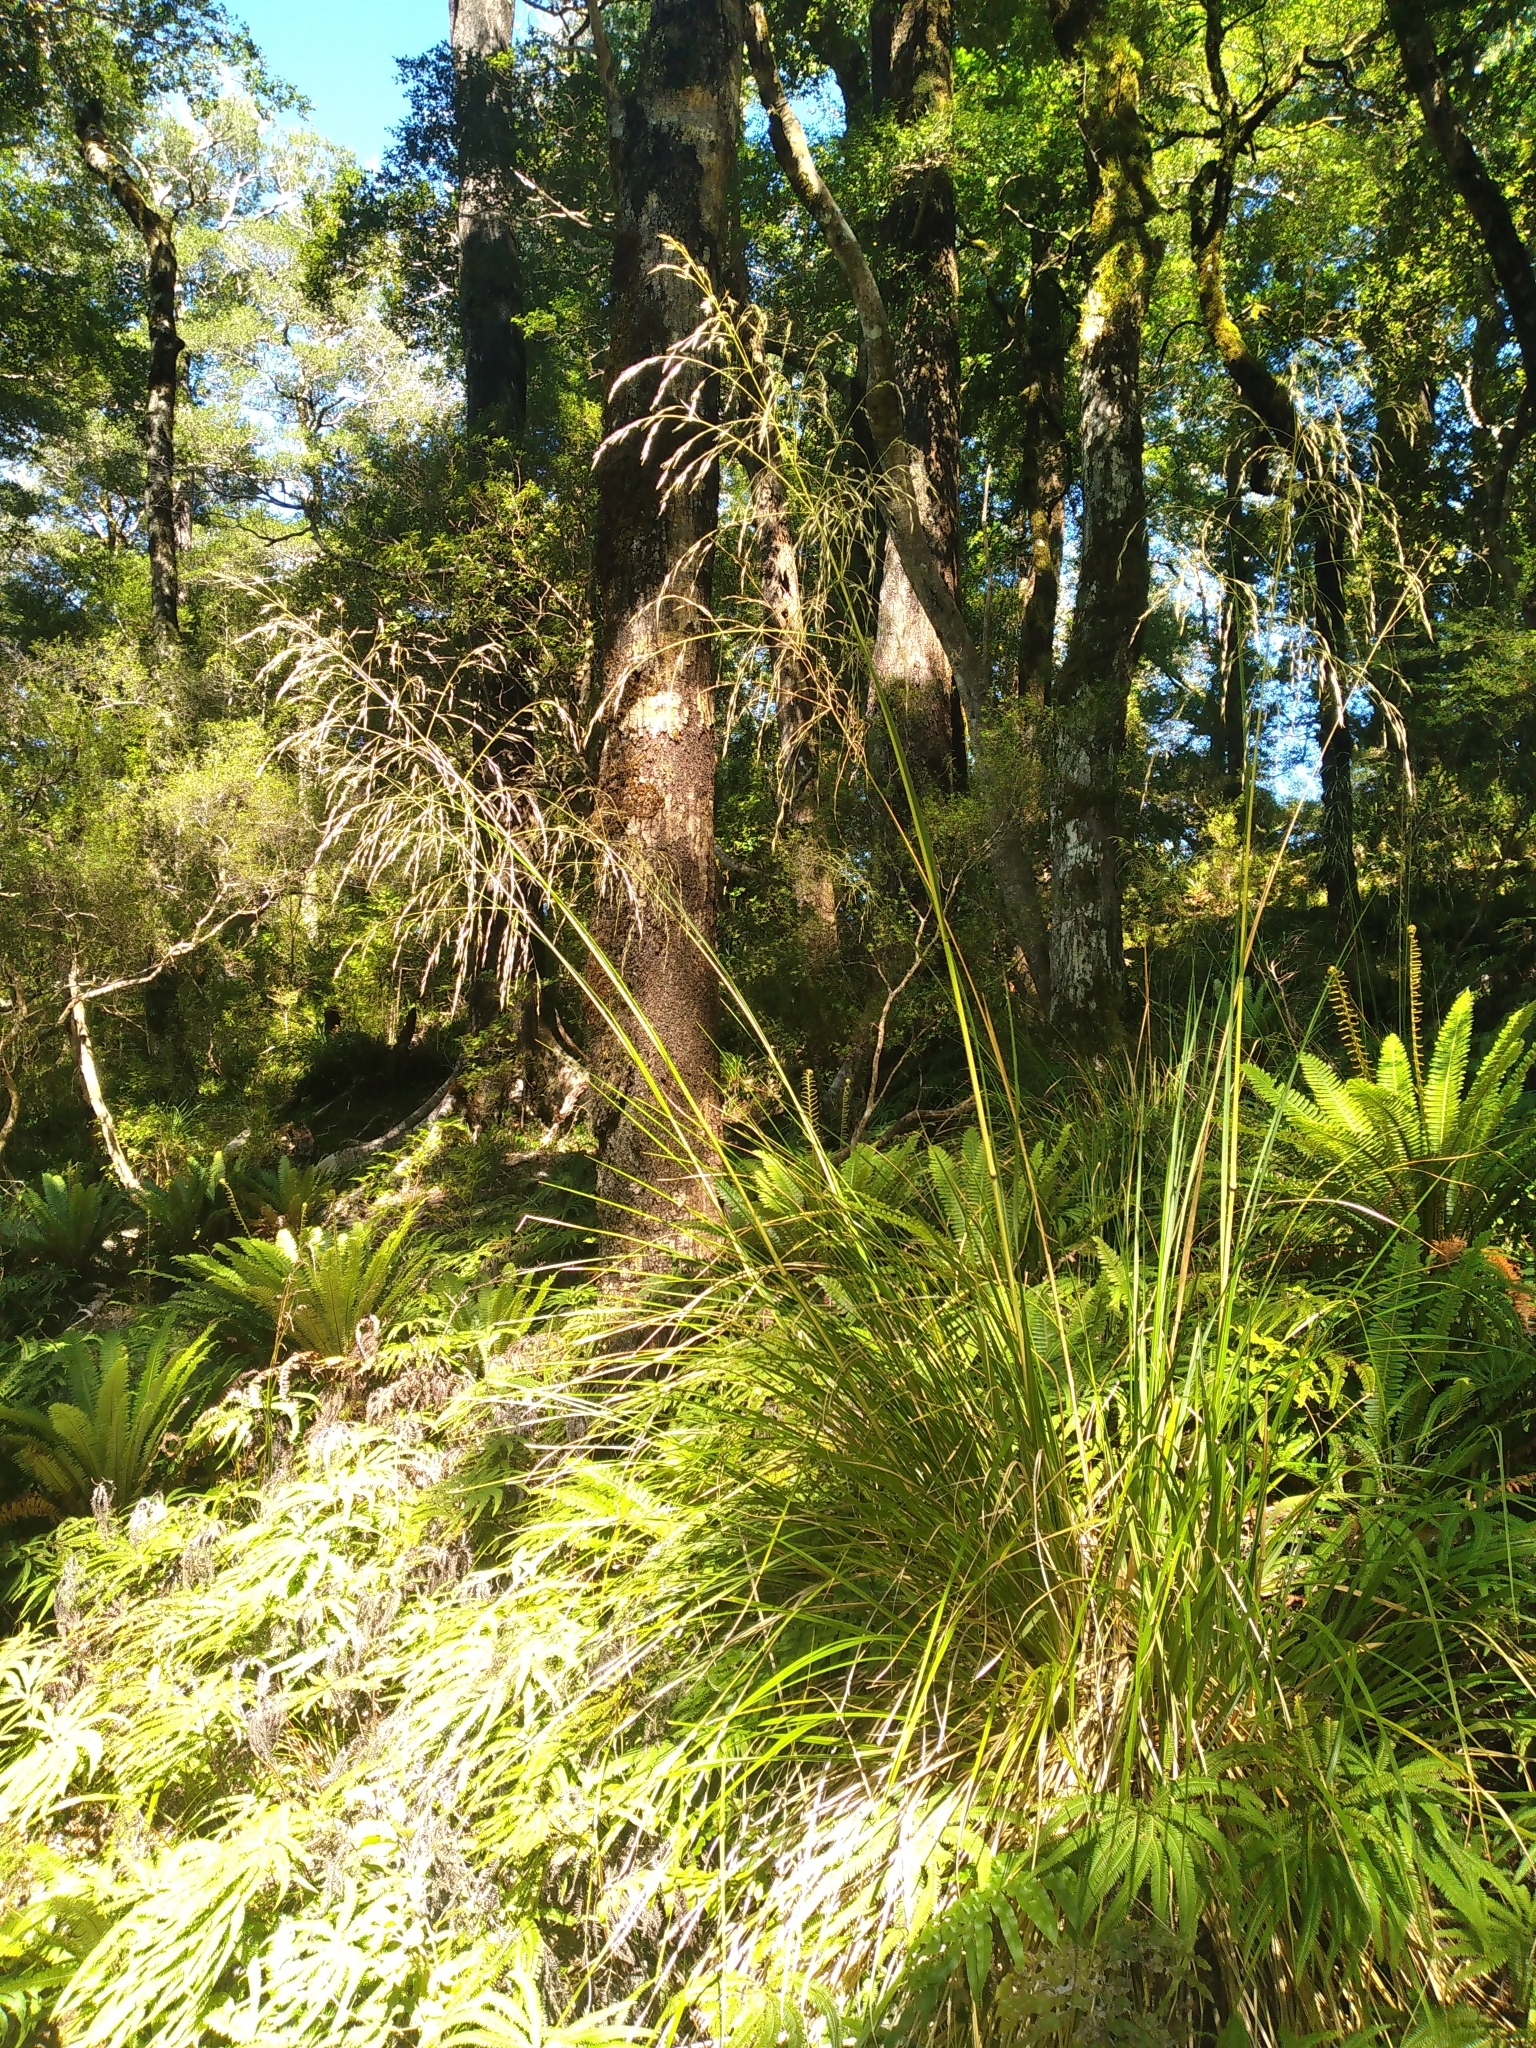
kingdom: Plantae
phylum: Tracheophyta
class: Liliopsida
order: Poales
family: Poaceae
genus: Chionochloa
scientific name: Chionochloa conspicua
